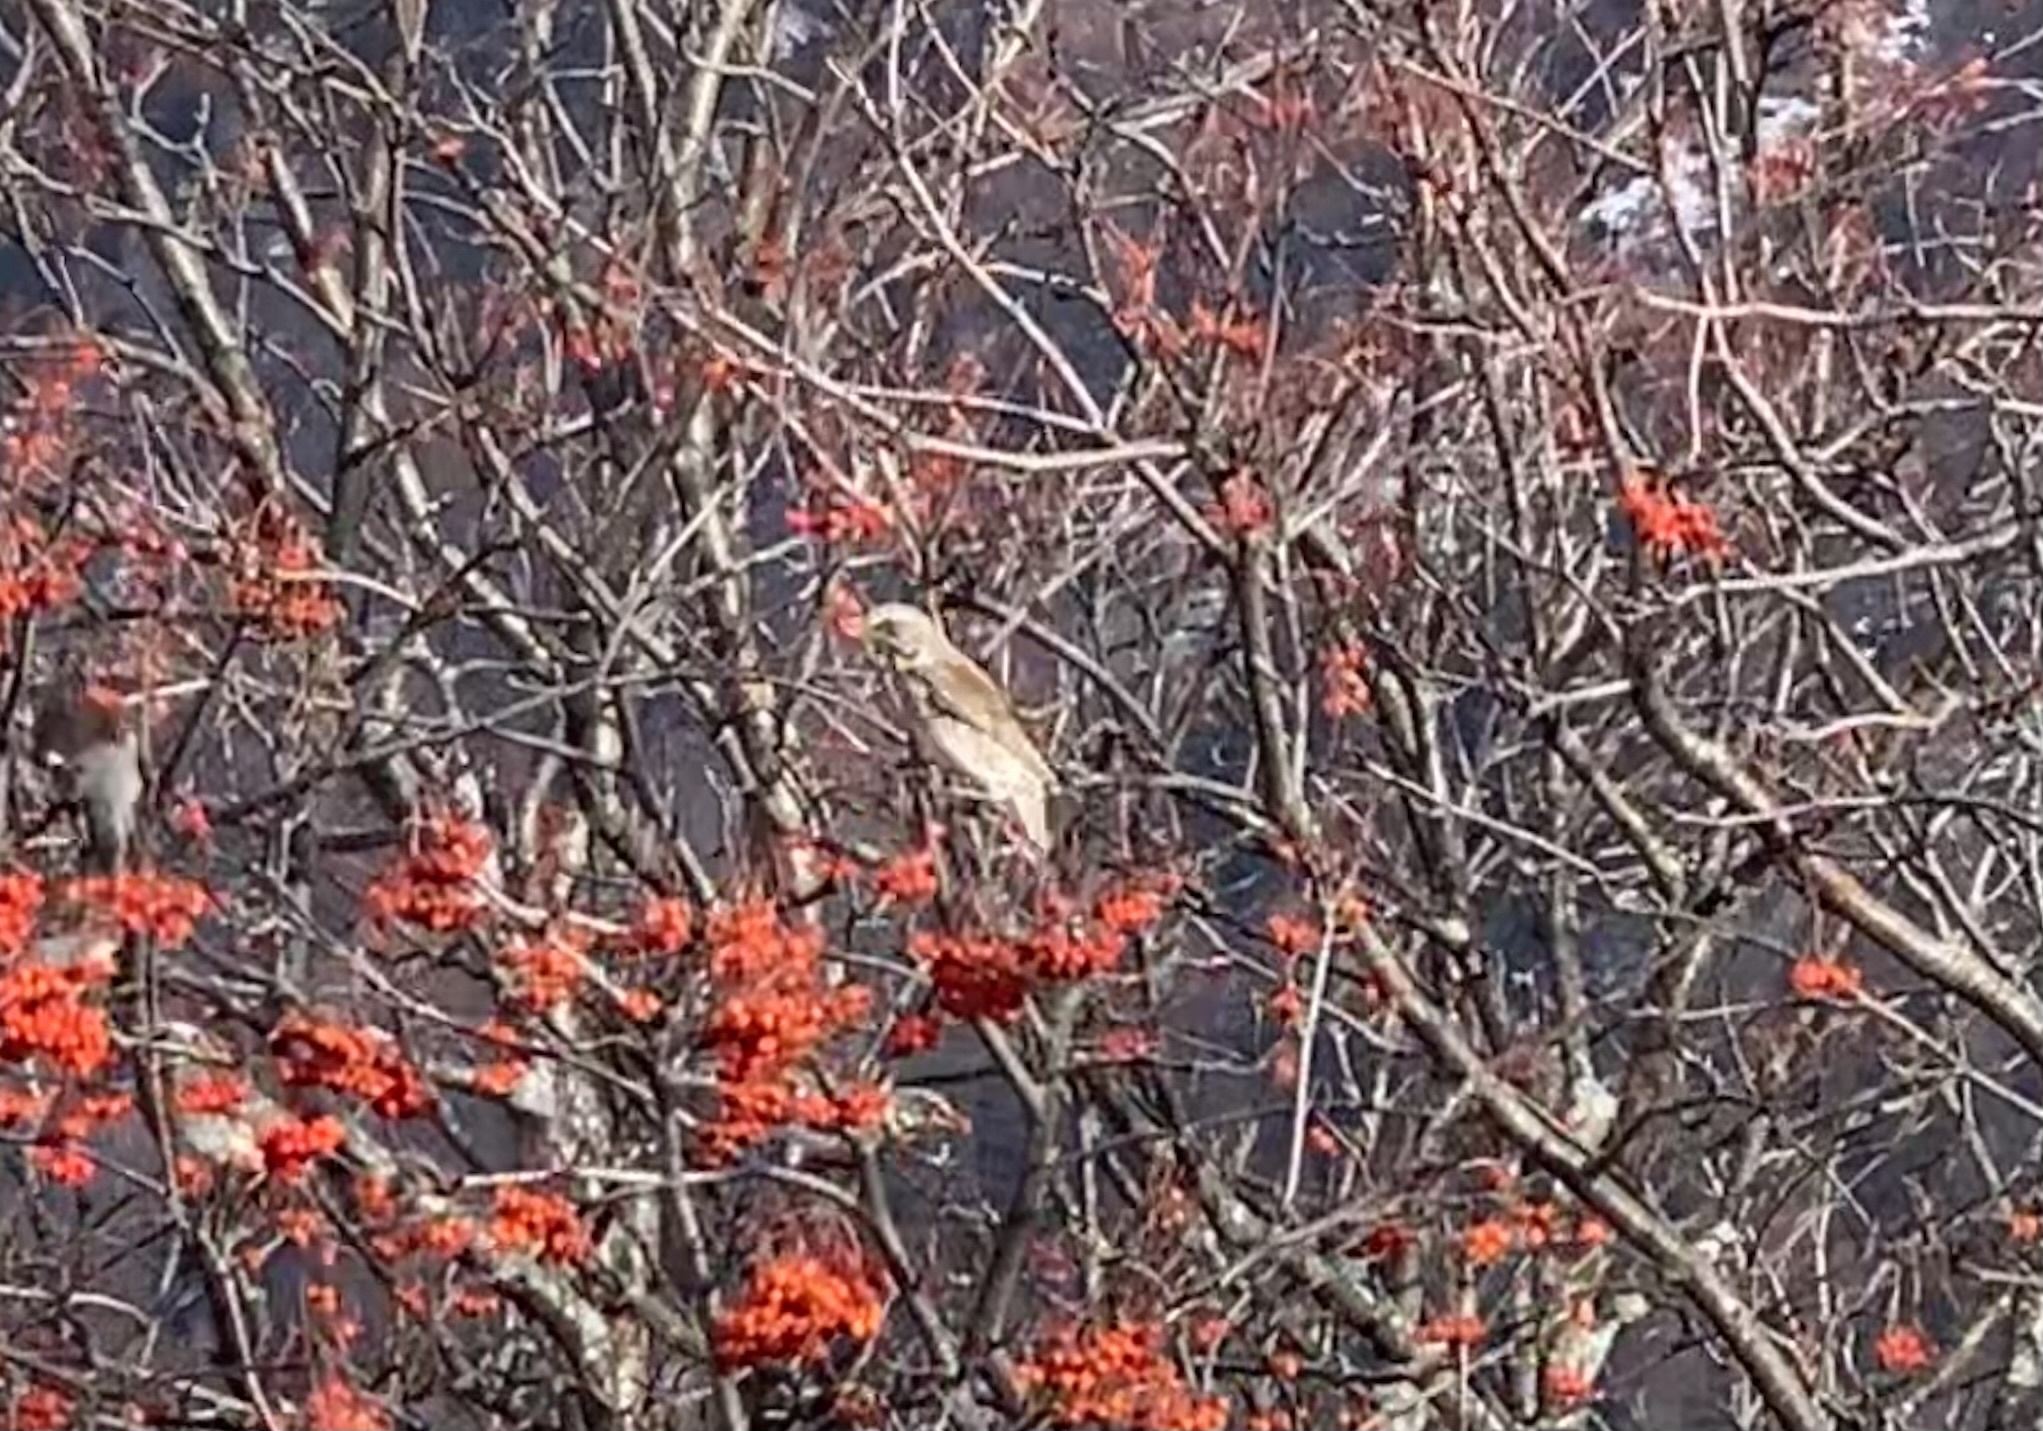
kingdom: Animalia
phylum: Chordata
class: Aves
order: Passeriformes
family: Turdidae
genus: Turdus
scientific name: Turdus pilaris
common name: Fieldfare
